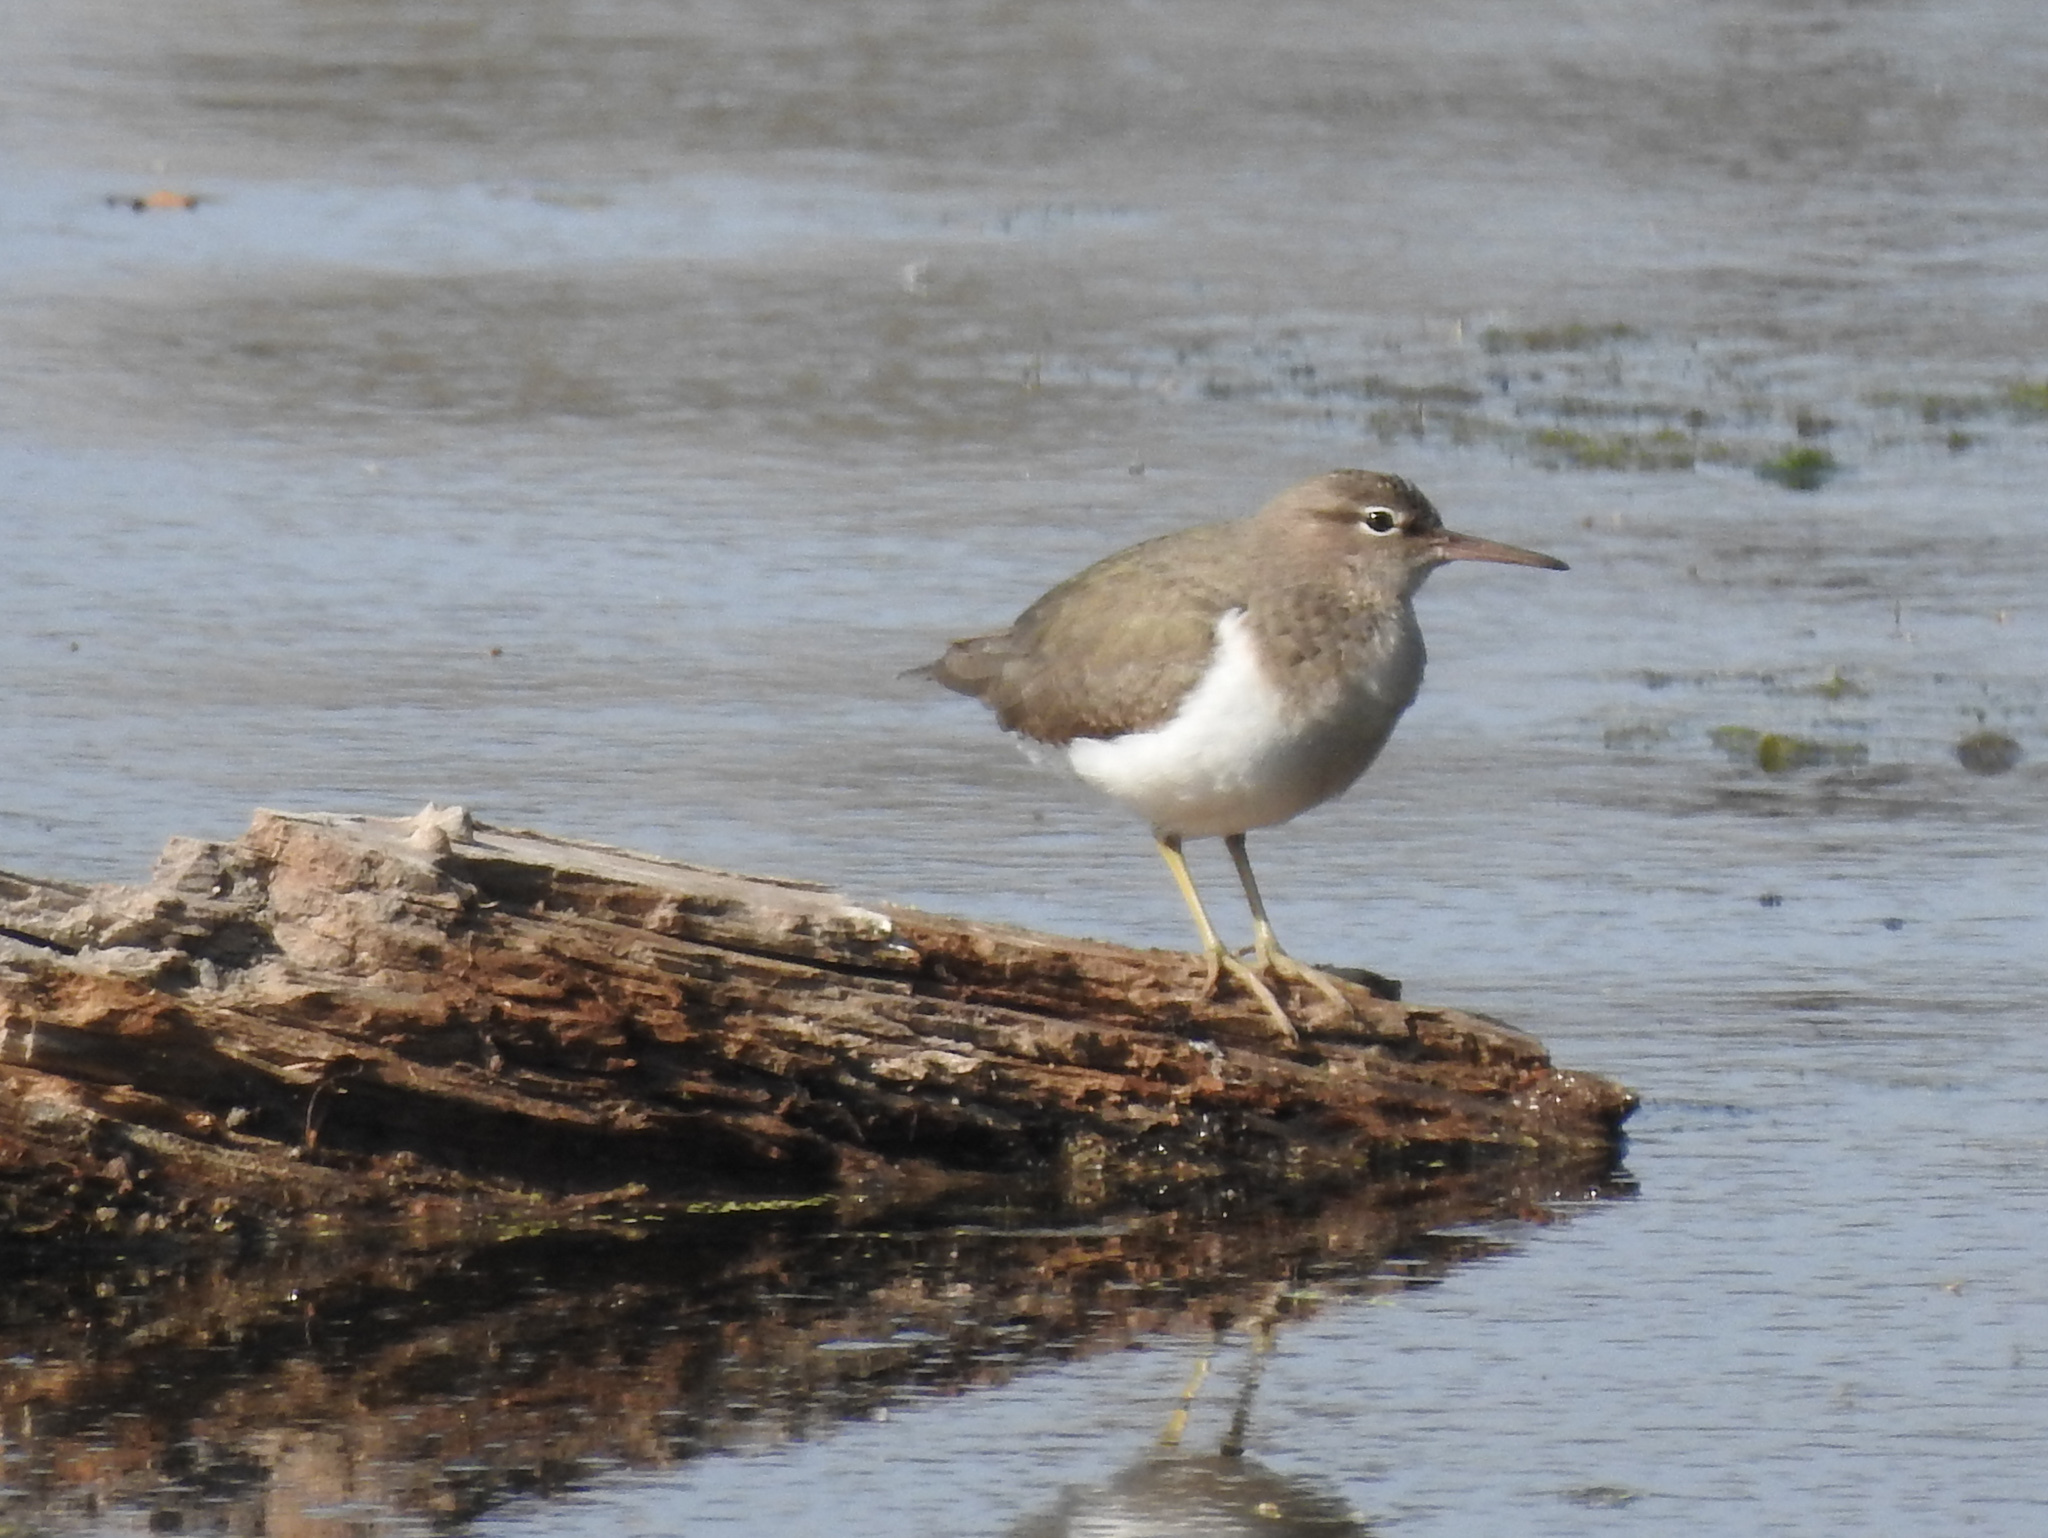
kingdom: Animalia
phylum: Chordata
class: Aves
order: Charadriiformes
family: Scolopacidae
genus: Actitis
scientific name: Actitis macularius
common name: Spotted sandpiper
